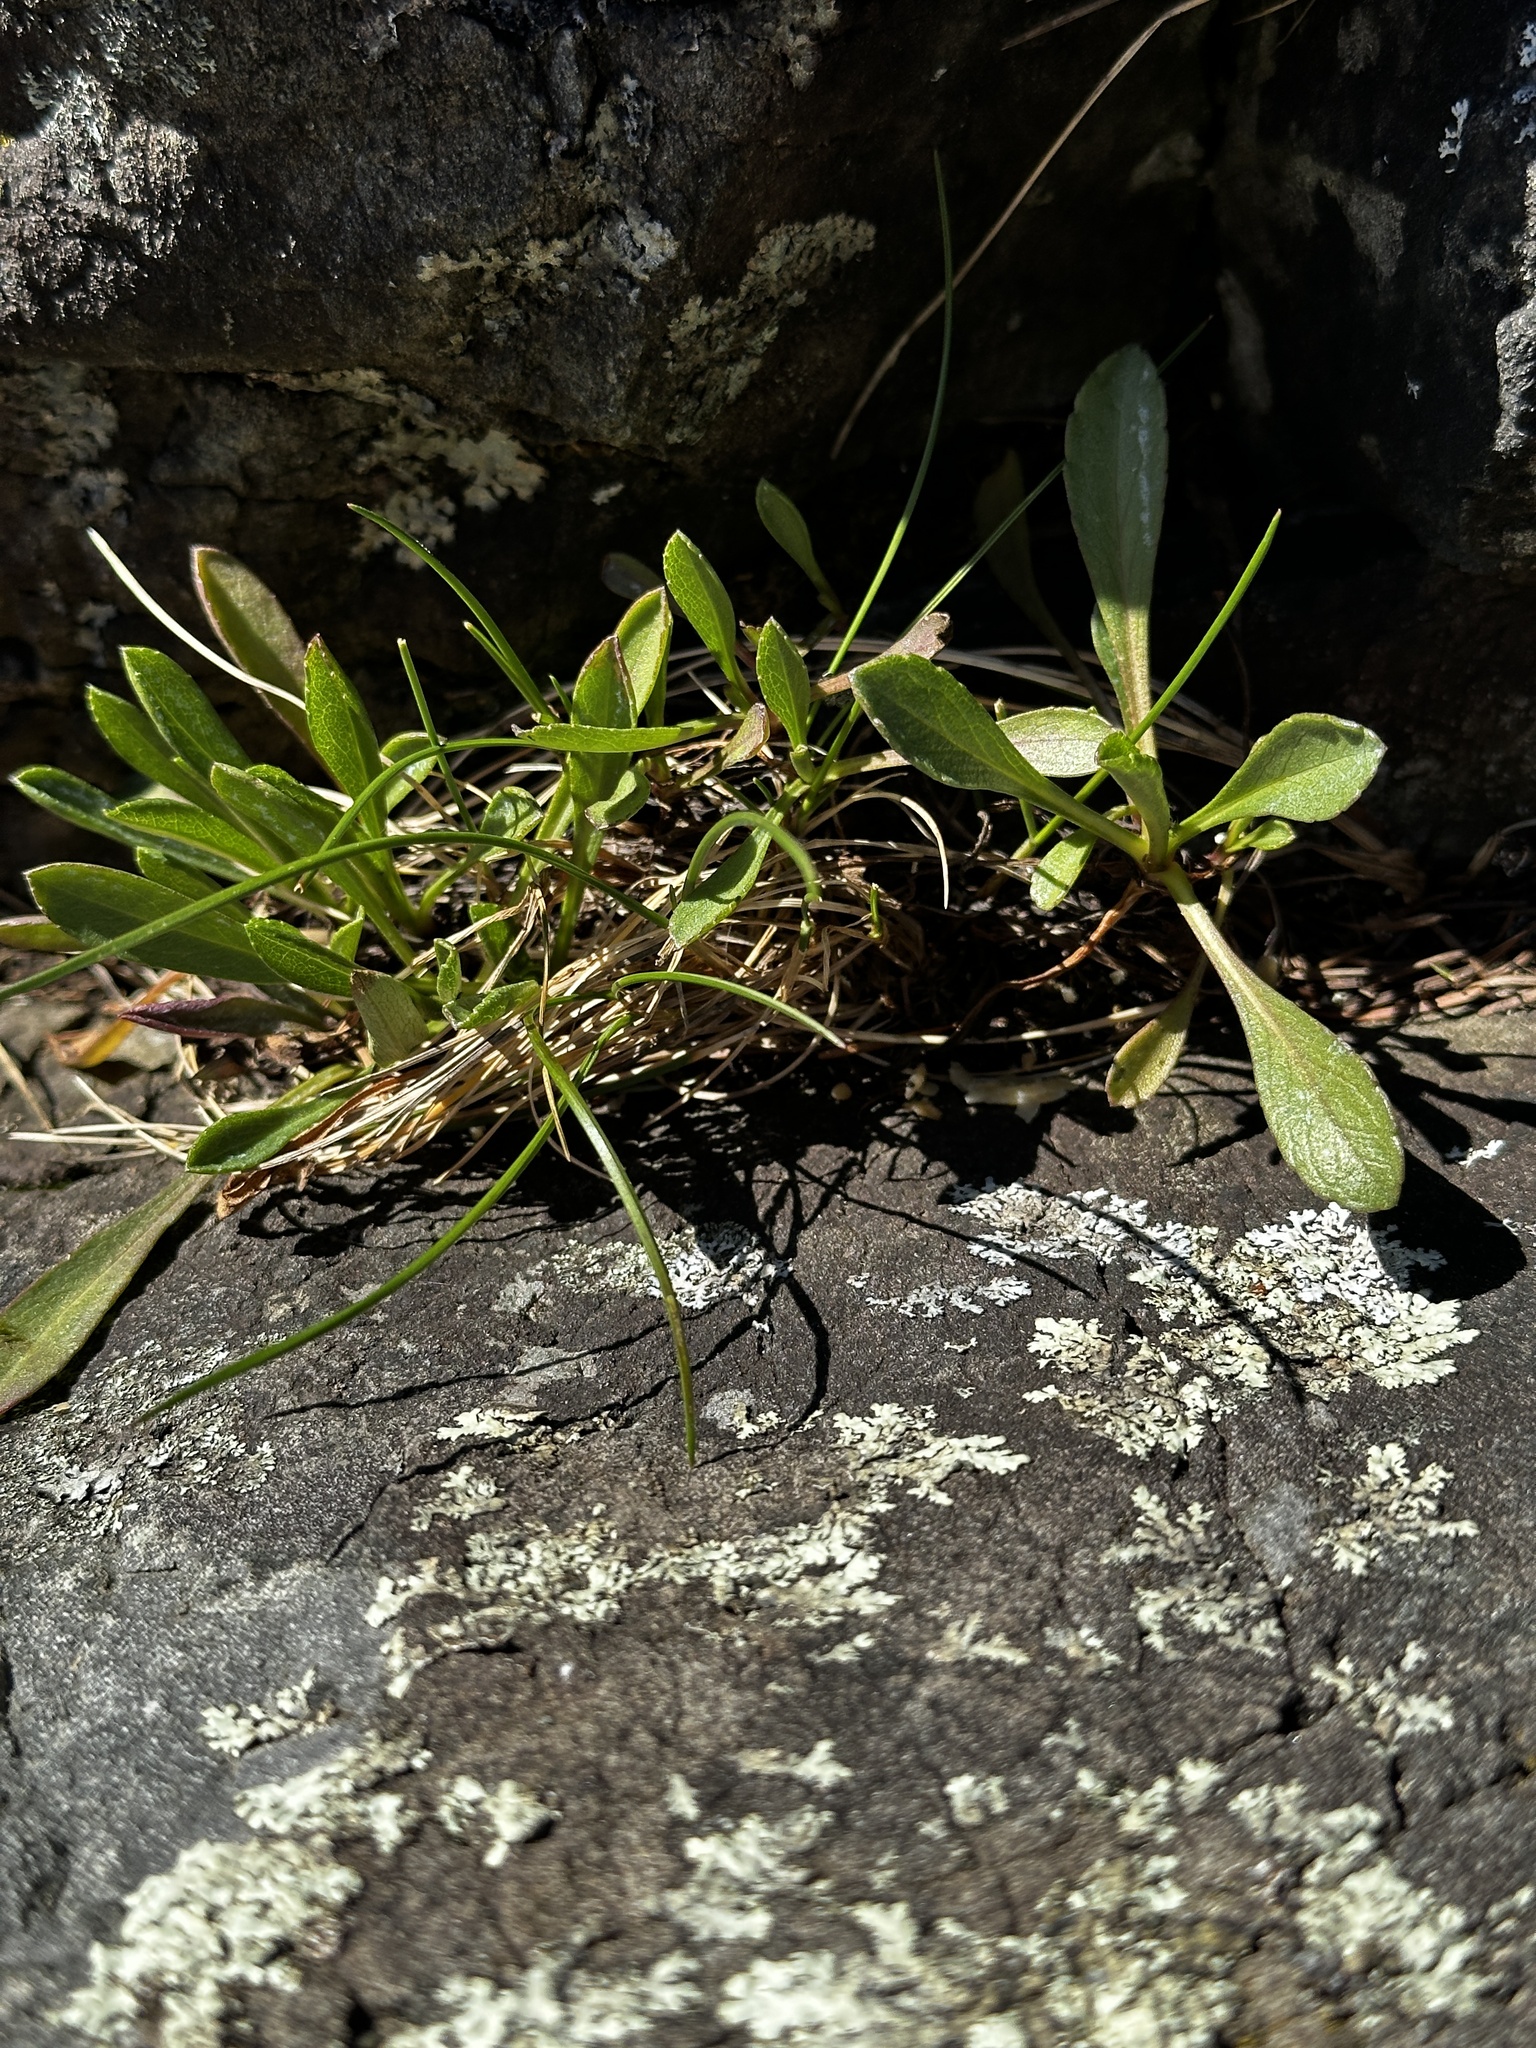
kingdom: Plantae
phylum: Tracheophyta
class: Magnoliopsida
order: Asterales
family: Asteraceae
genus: Grindelia
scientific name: Grindelia hirsutula
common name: Hairy gumweed
